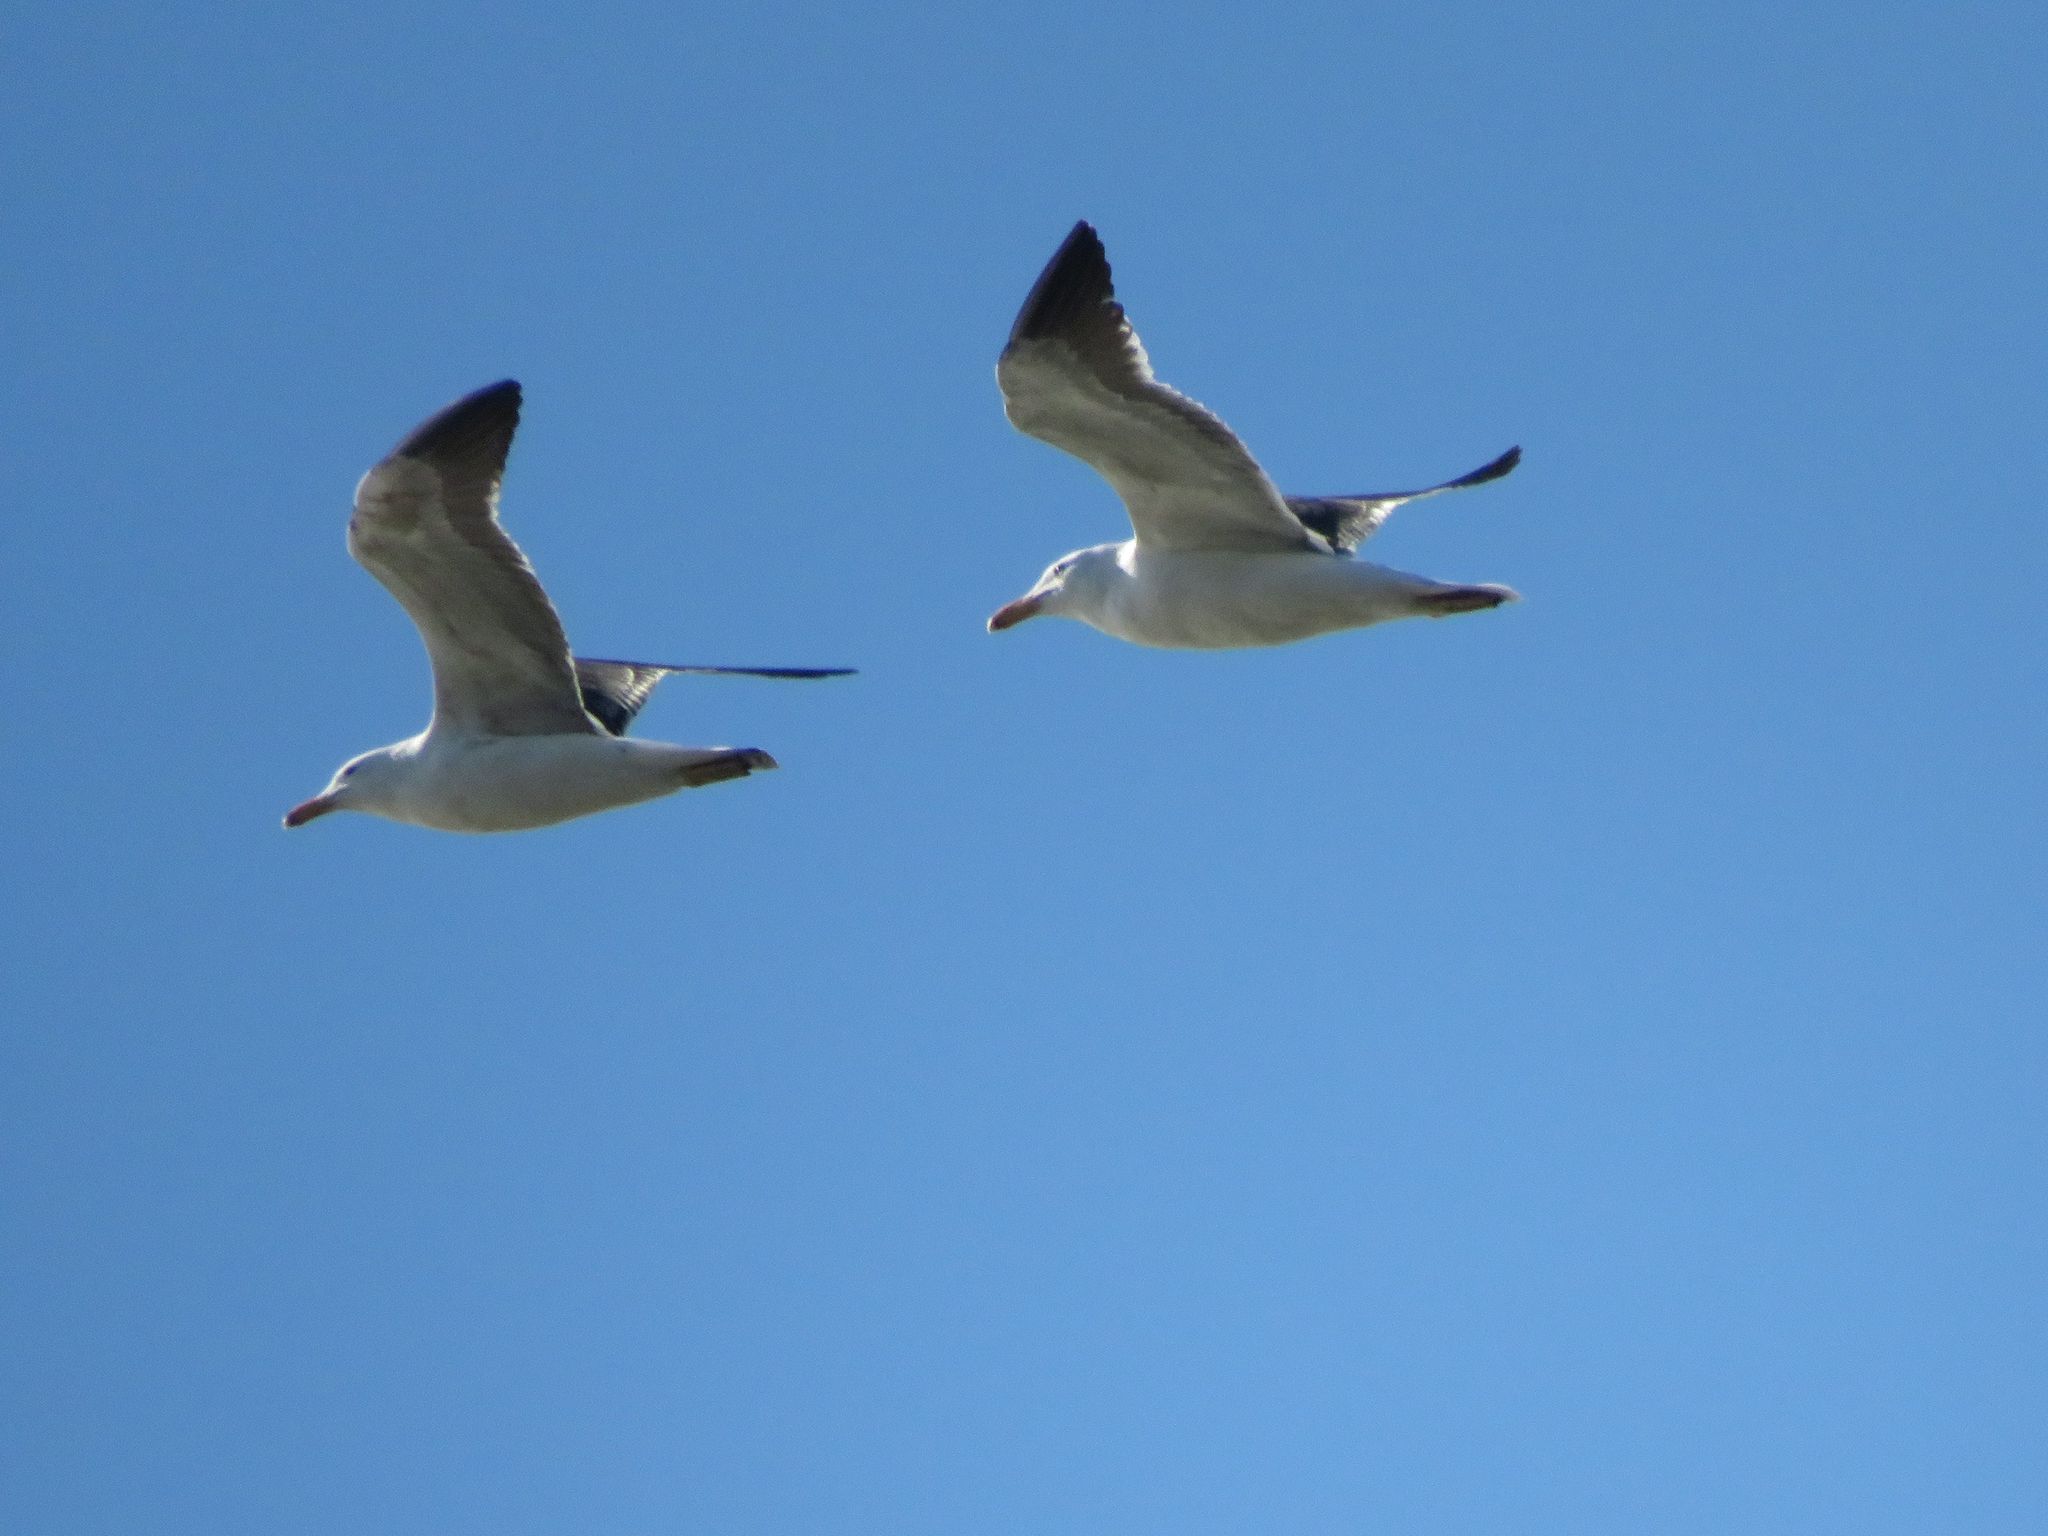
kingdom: Animalia
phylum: Chordata
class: Aves
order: Charadriiformes
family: Laridae
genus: Larus
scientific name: Larus dominicanus
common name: Kelp gull
